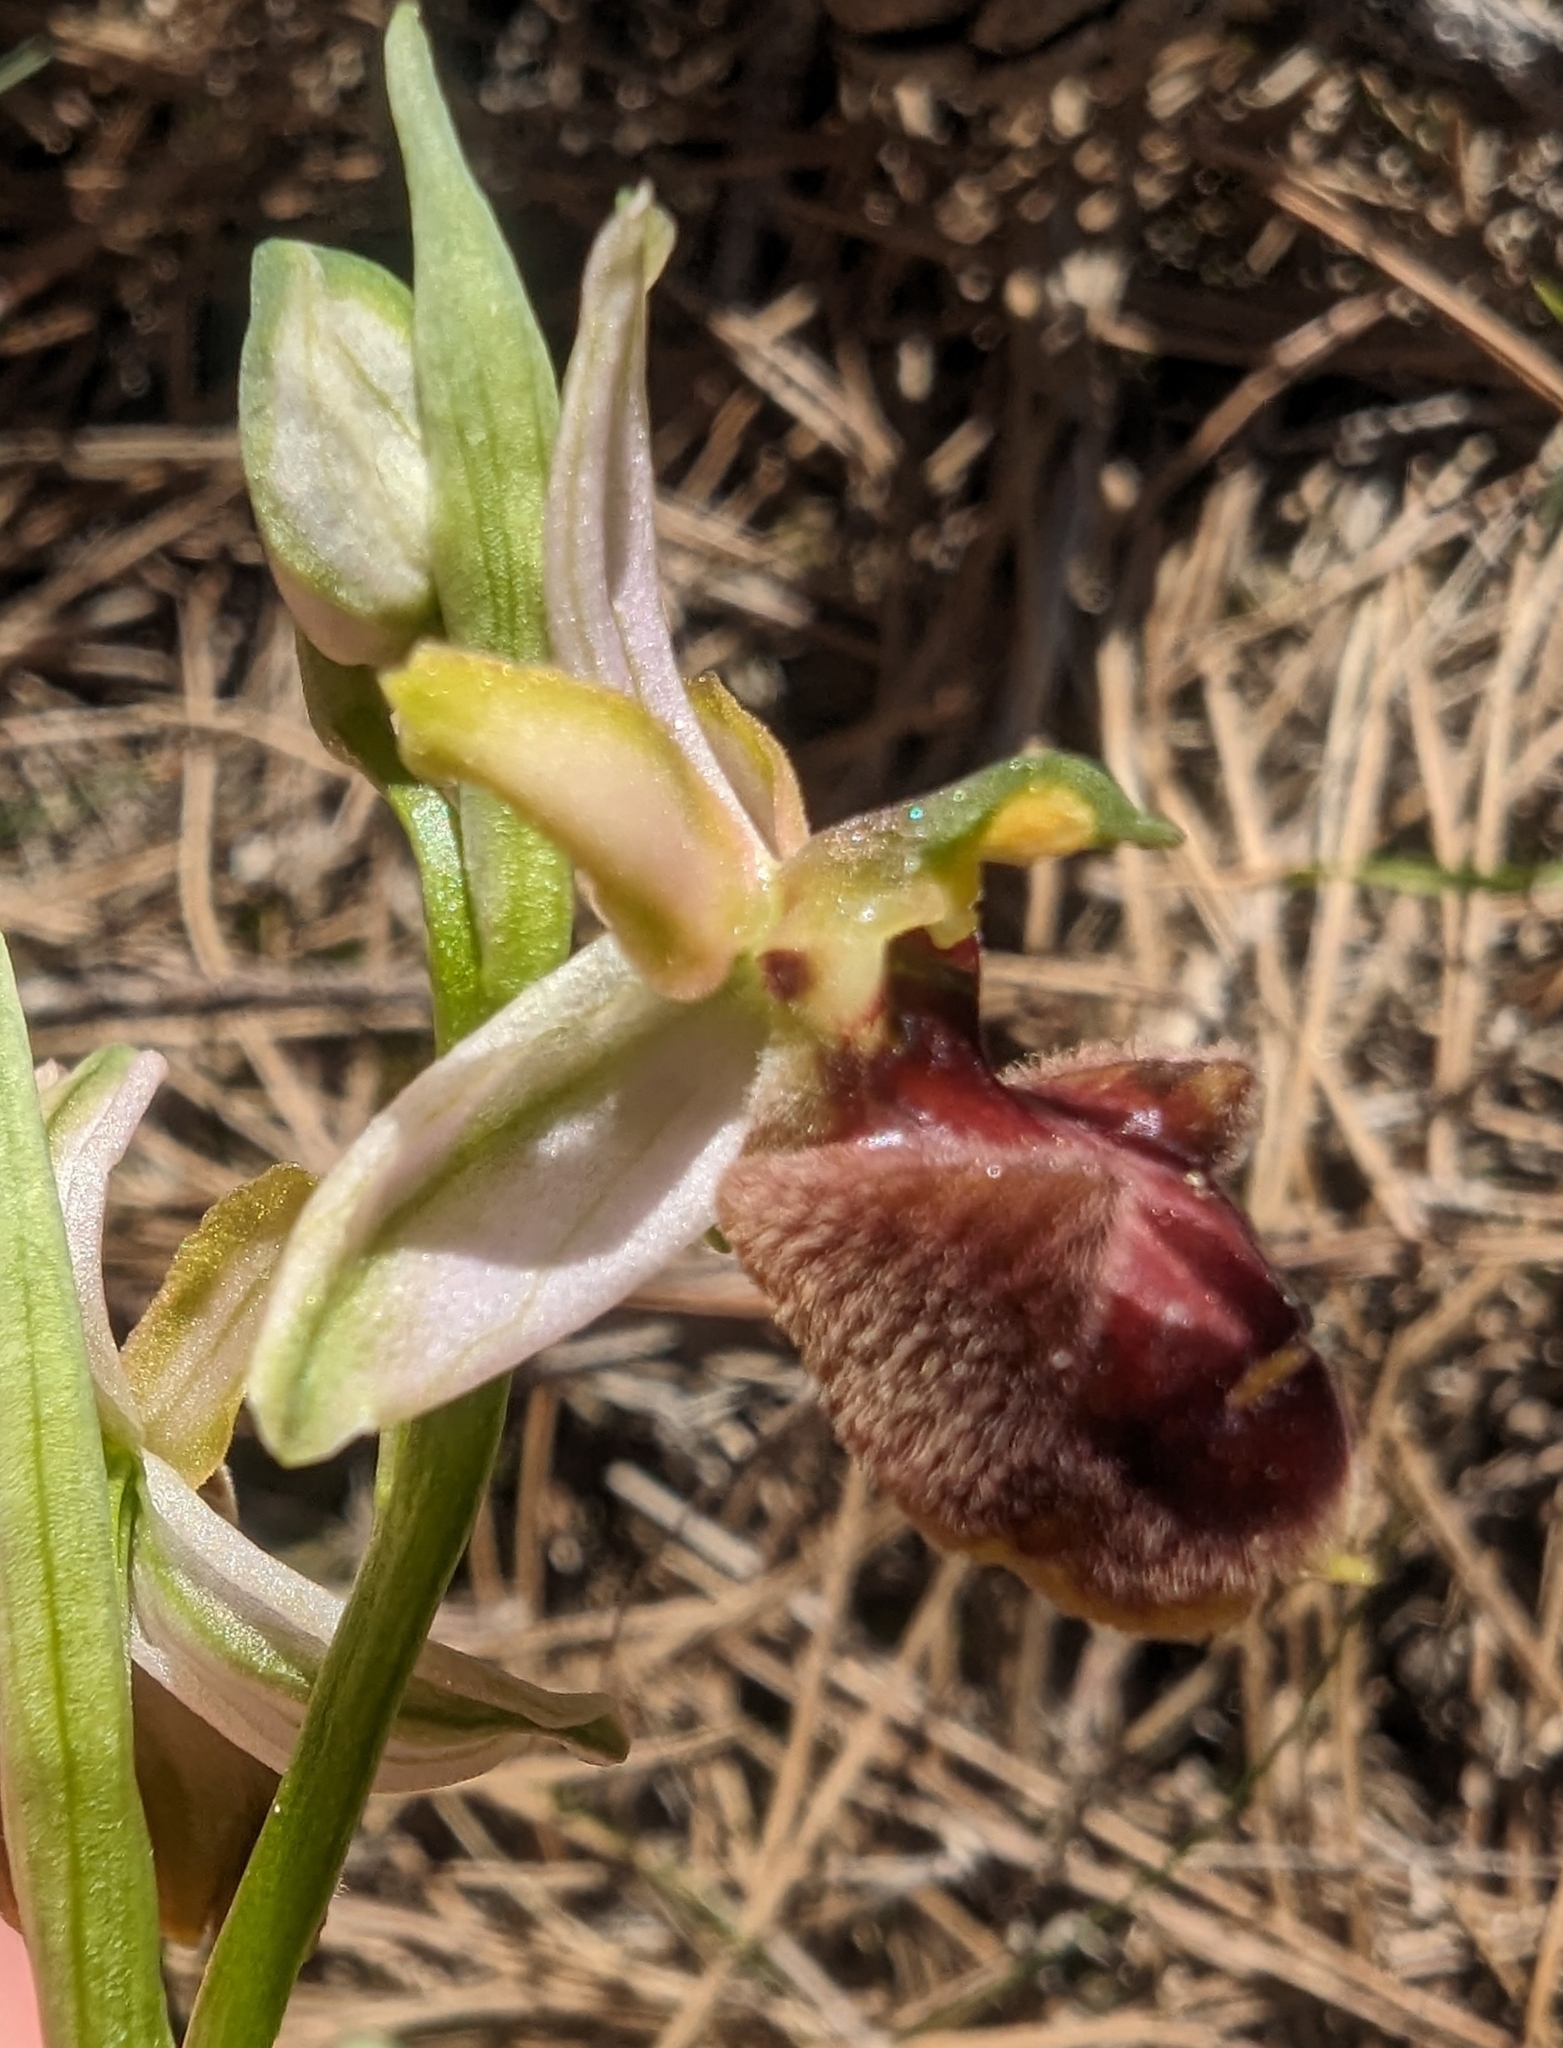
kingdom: Plantae
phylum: Tracheophyta
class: Liliopsida
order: Asparagales
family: Orchidaceae
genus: Ophrys
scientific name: Ophrys sphegodes
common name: Early spider-orchid
